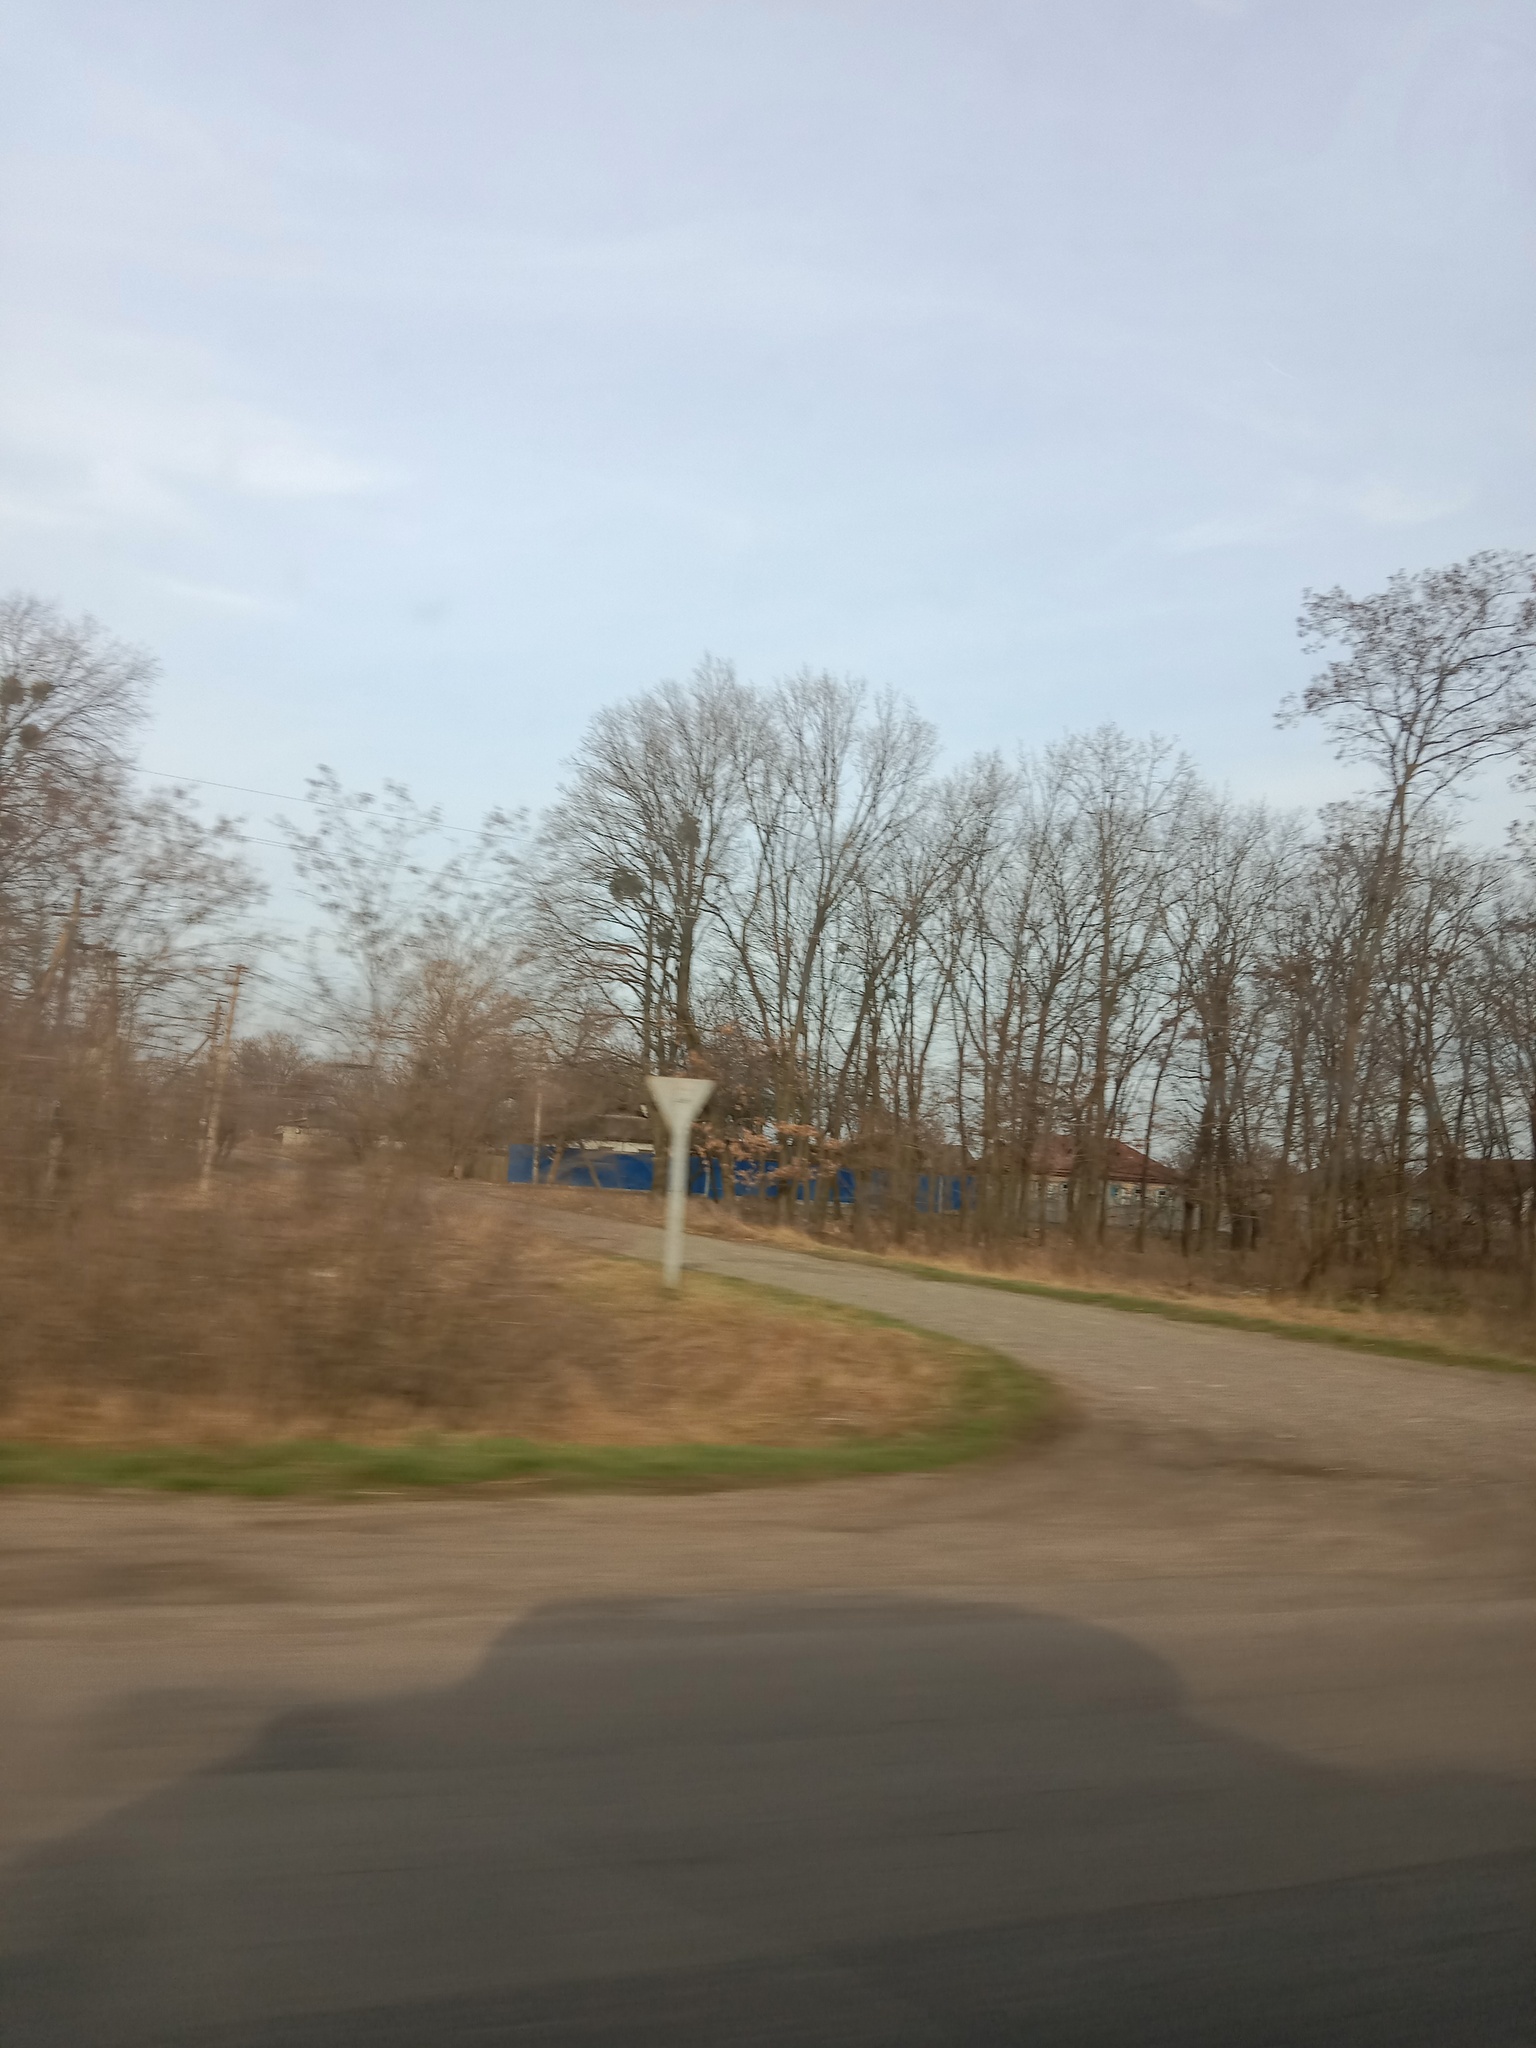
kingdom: Plantae
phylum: Tracheophyta
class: Magnoliopsida
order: Santalales
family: Viscaceae
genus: Viscum
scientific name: Viscum album
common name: Mistletoe
